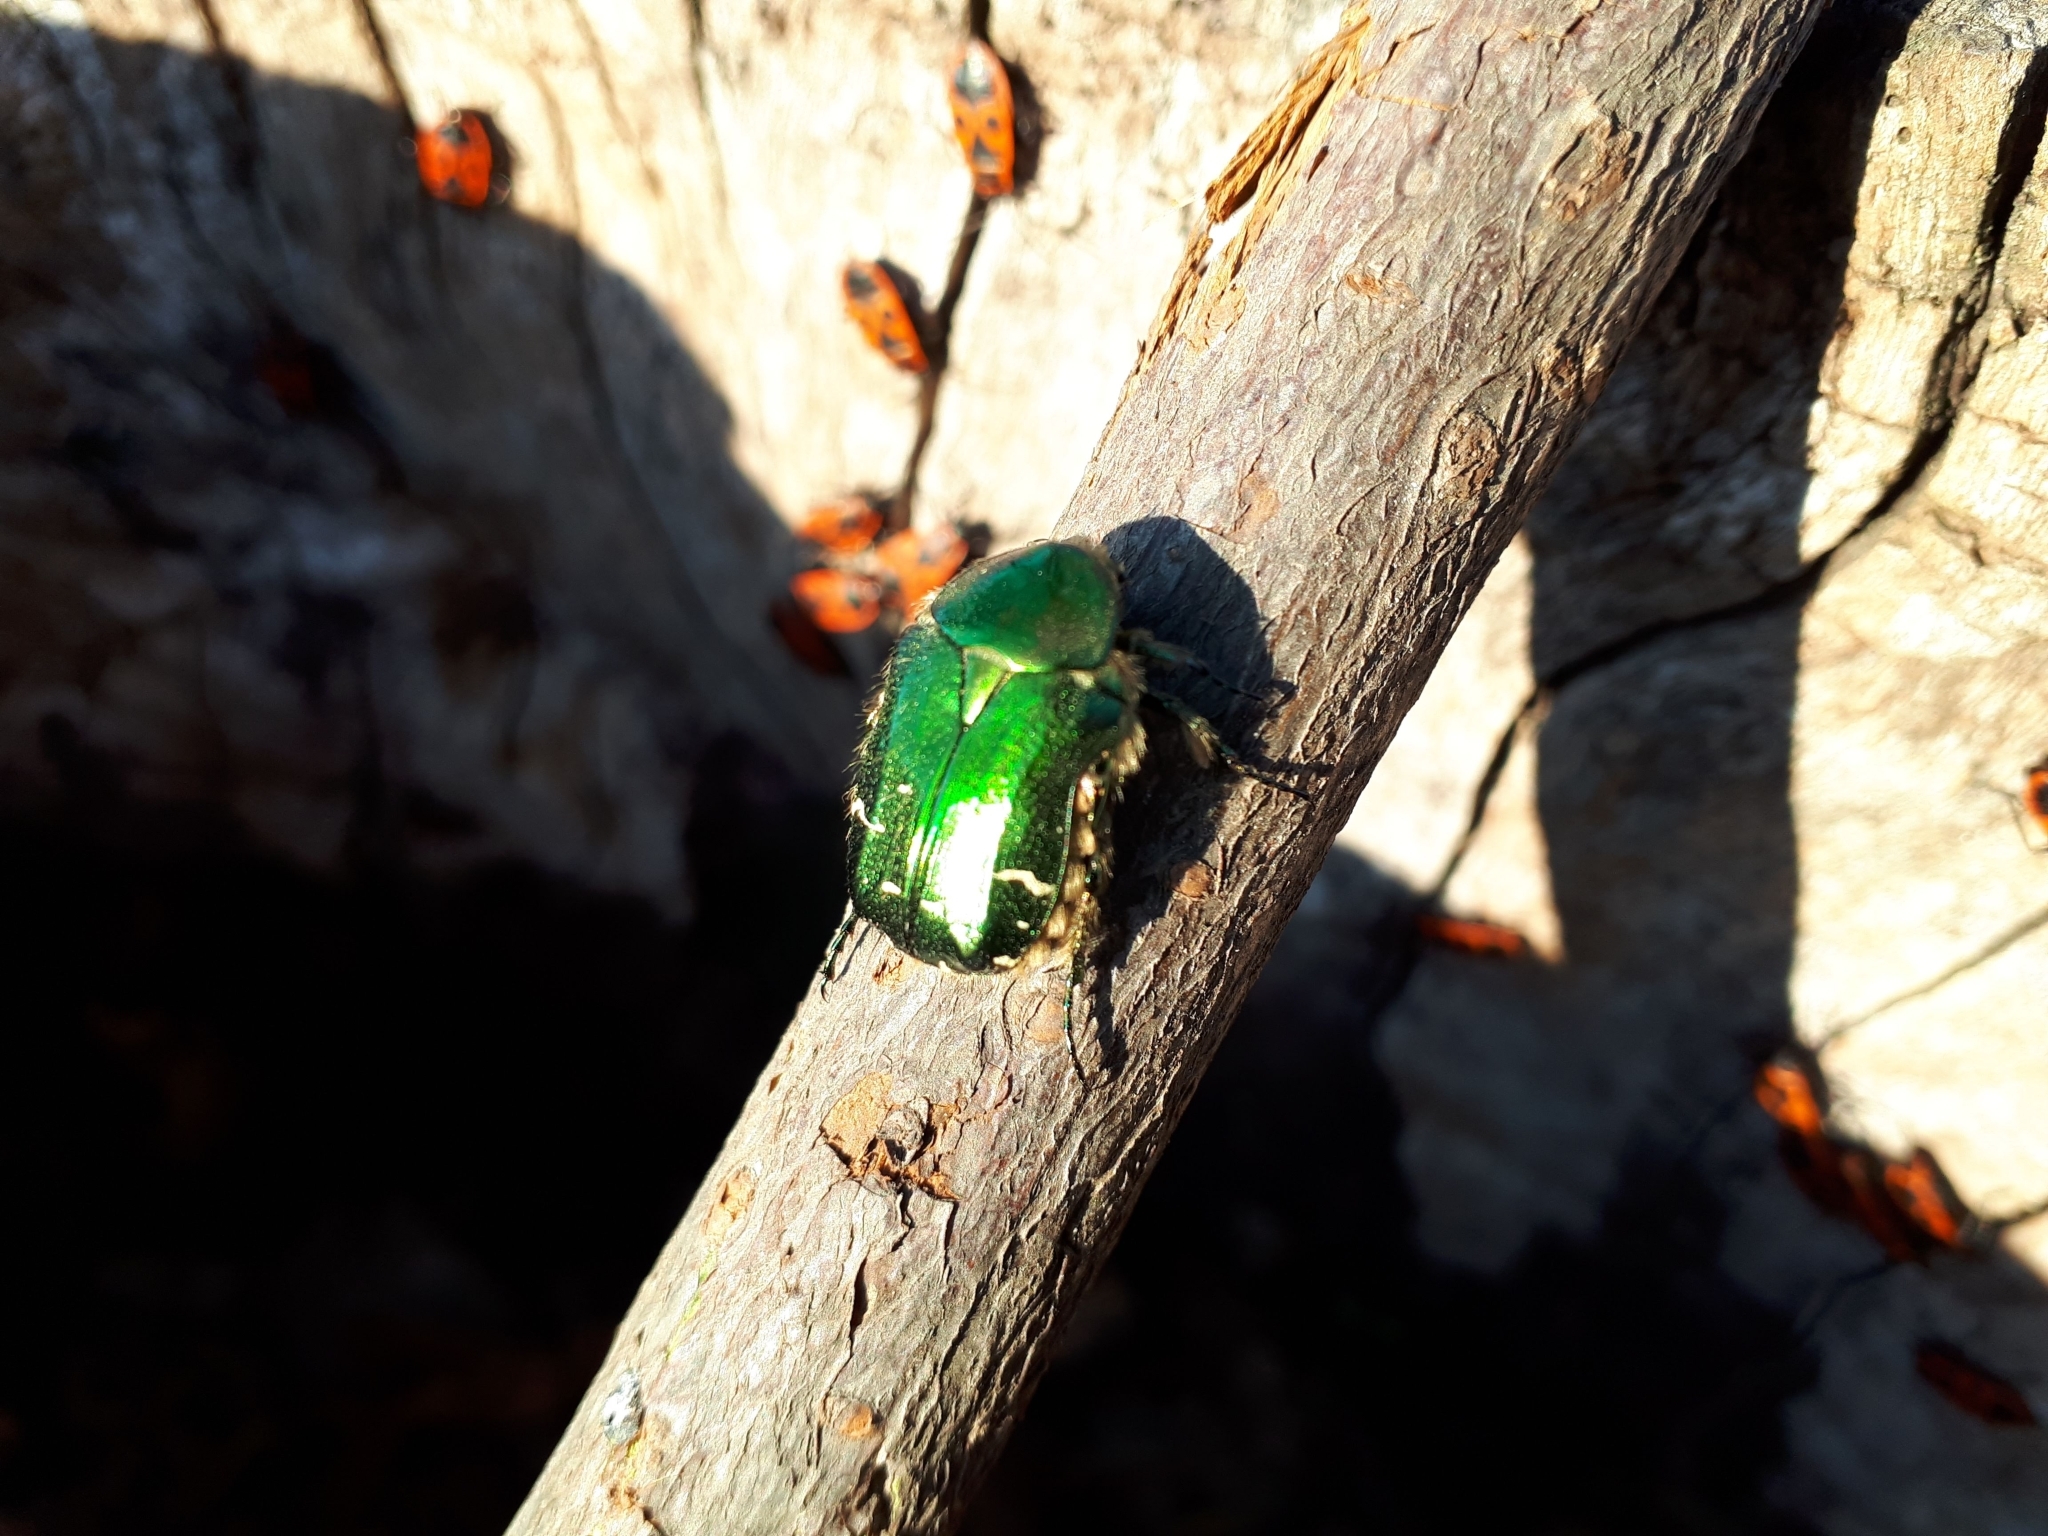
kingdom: Animalia
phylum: Arthropoda
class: Insecta
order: Coleoptera
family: Scarabaeidae
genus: Cetonia
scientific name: Cetonia aurata
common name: Rose chafer
